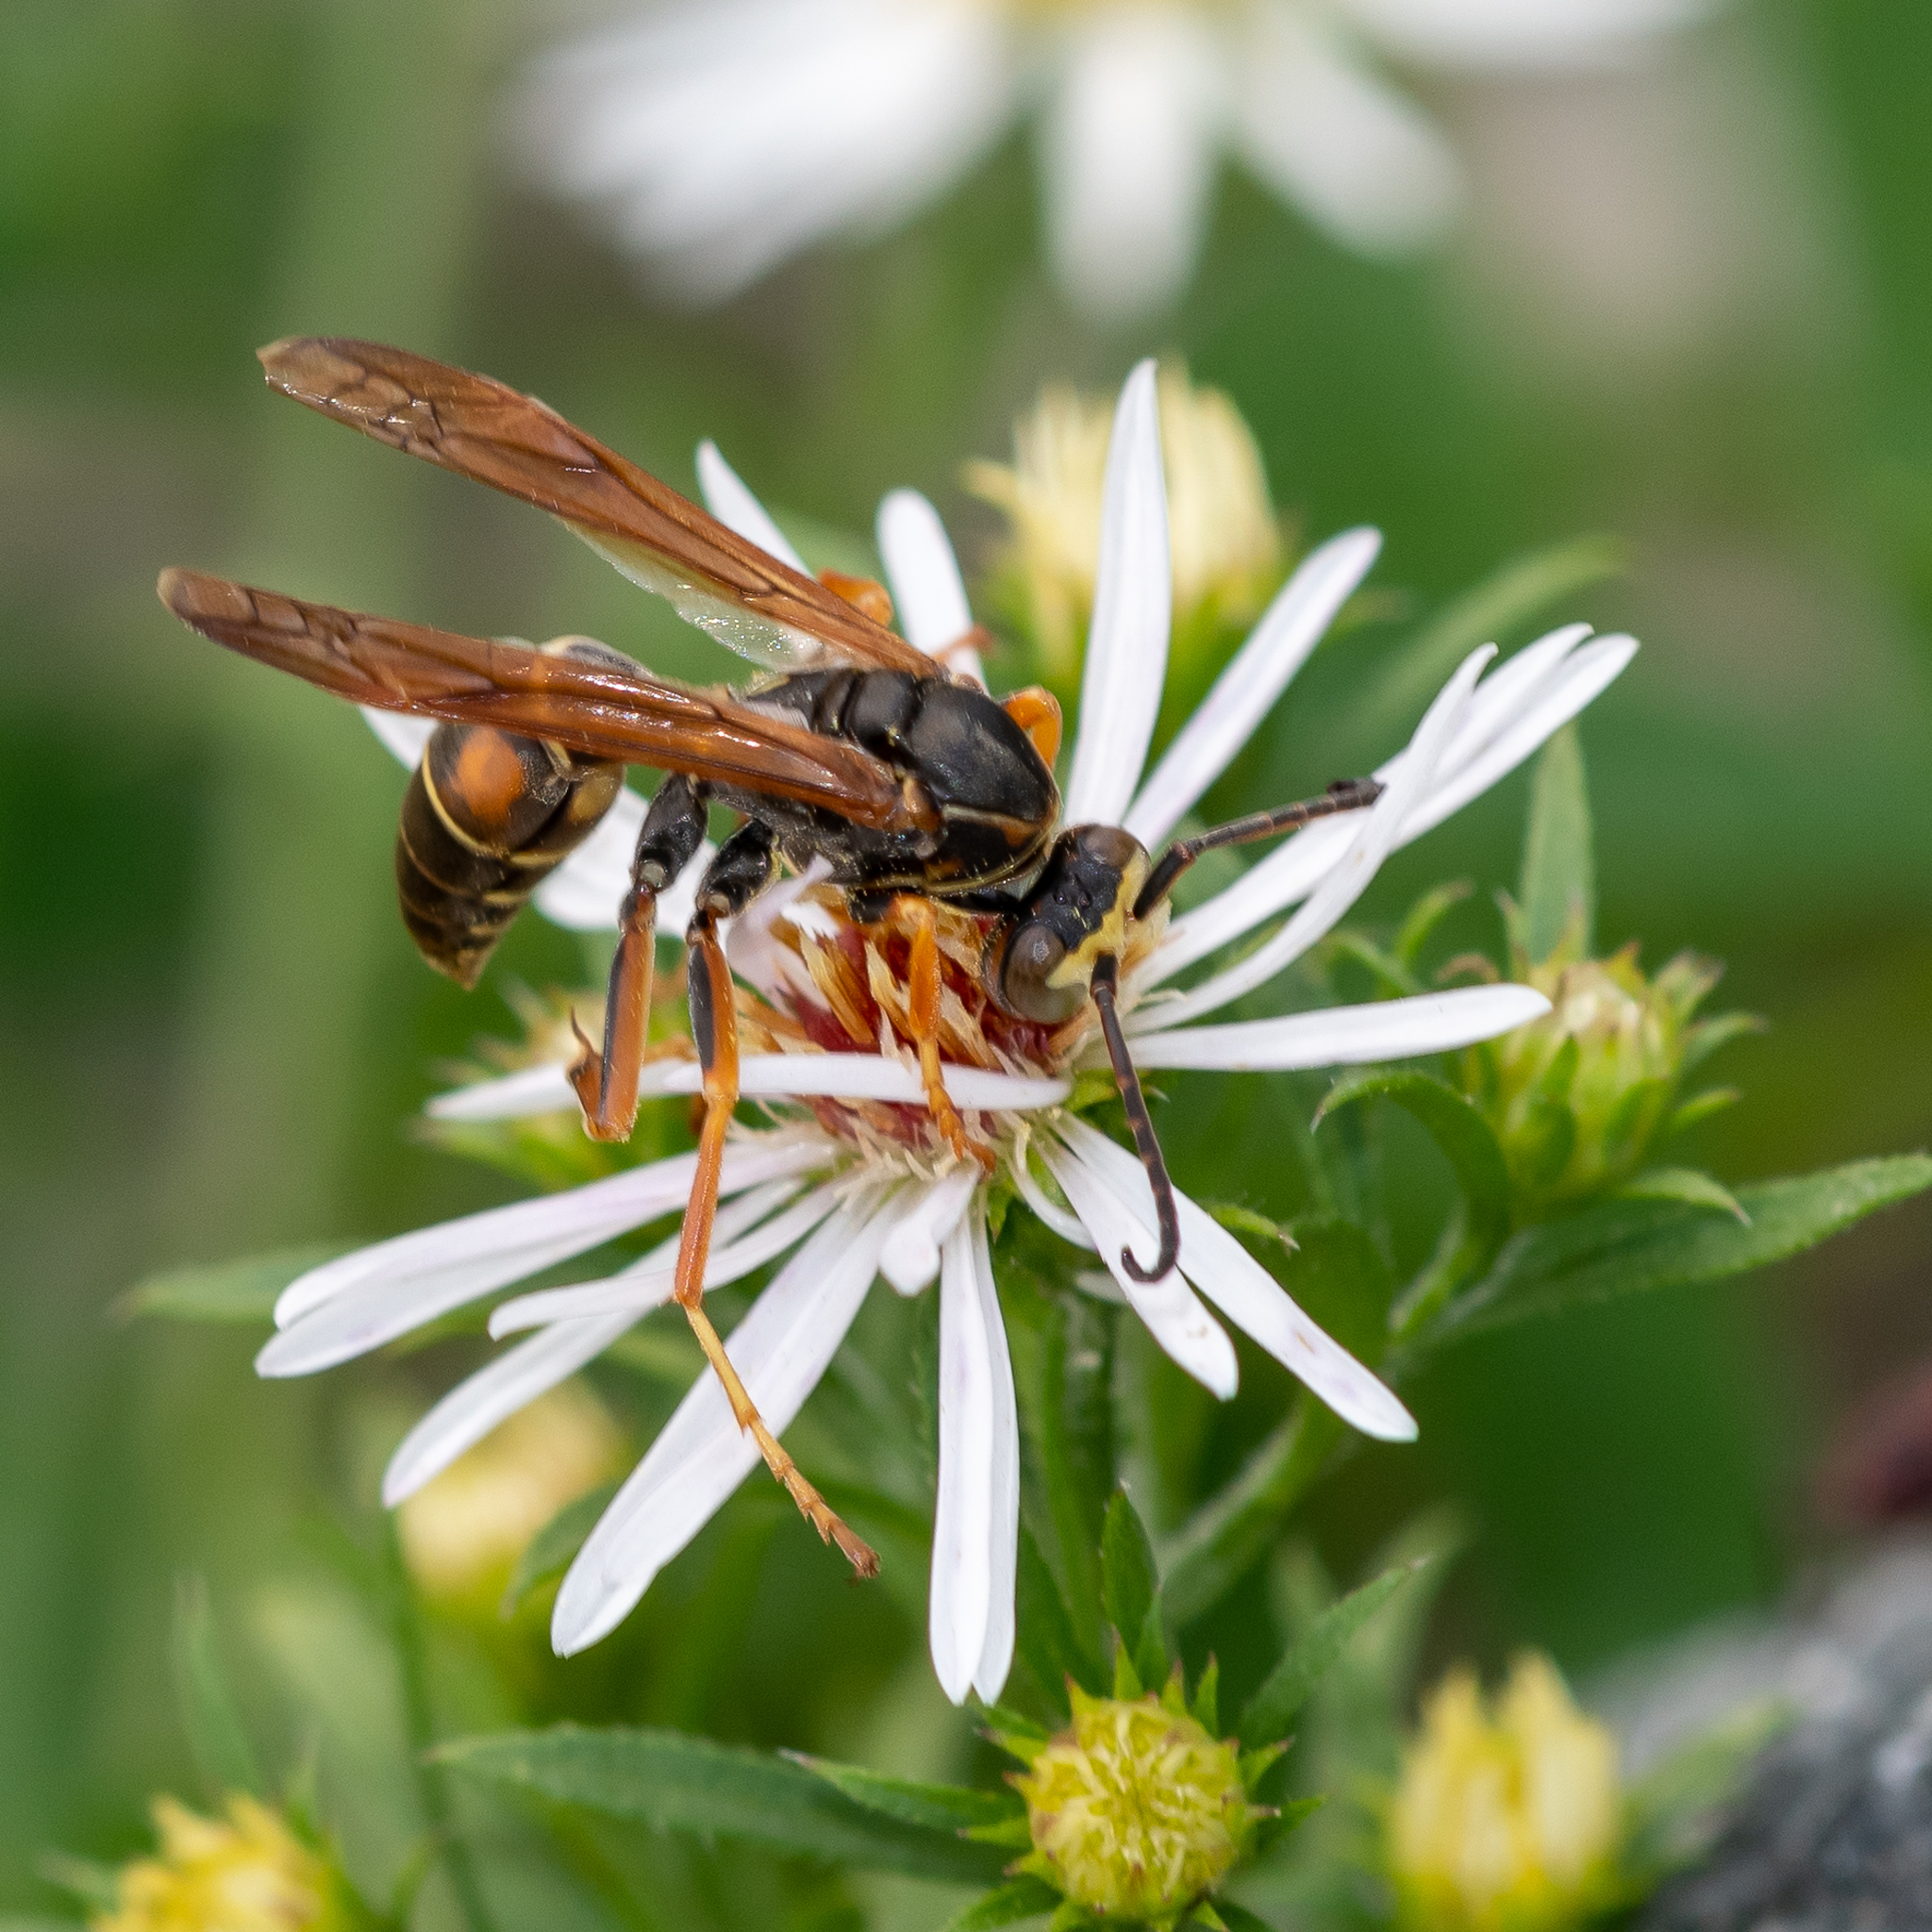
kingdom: Animalia
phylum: Arthropoda
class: Insecta
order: Hymenoptera
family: Eumenidae
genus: Polistes
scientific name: Polistes fuscatus
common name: Dark paper wasp
